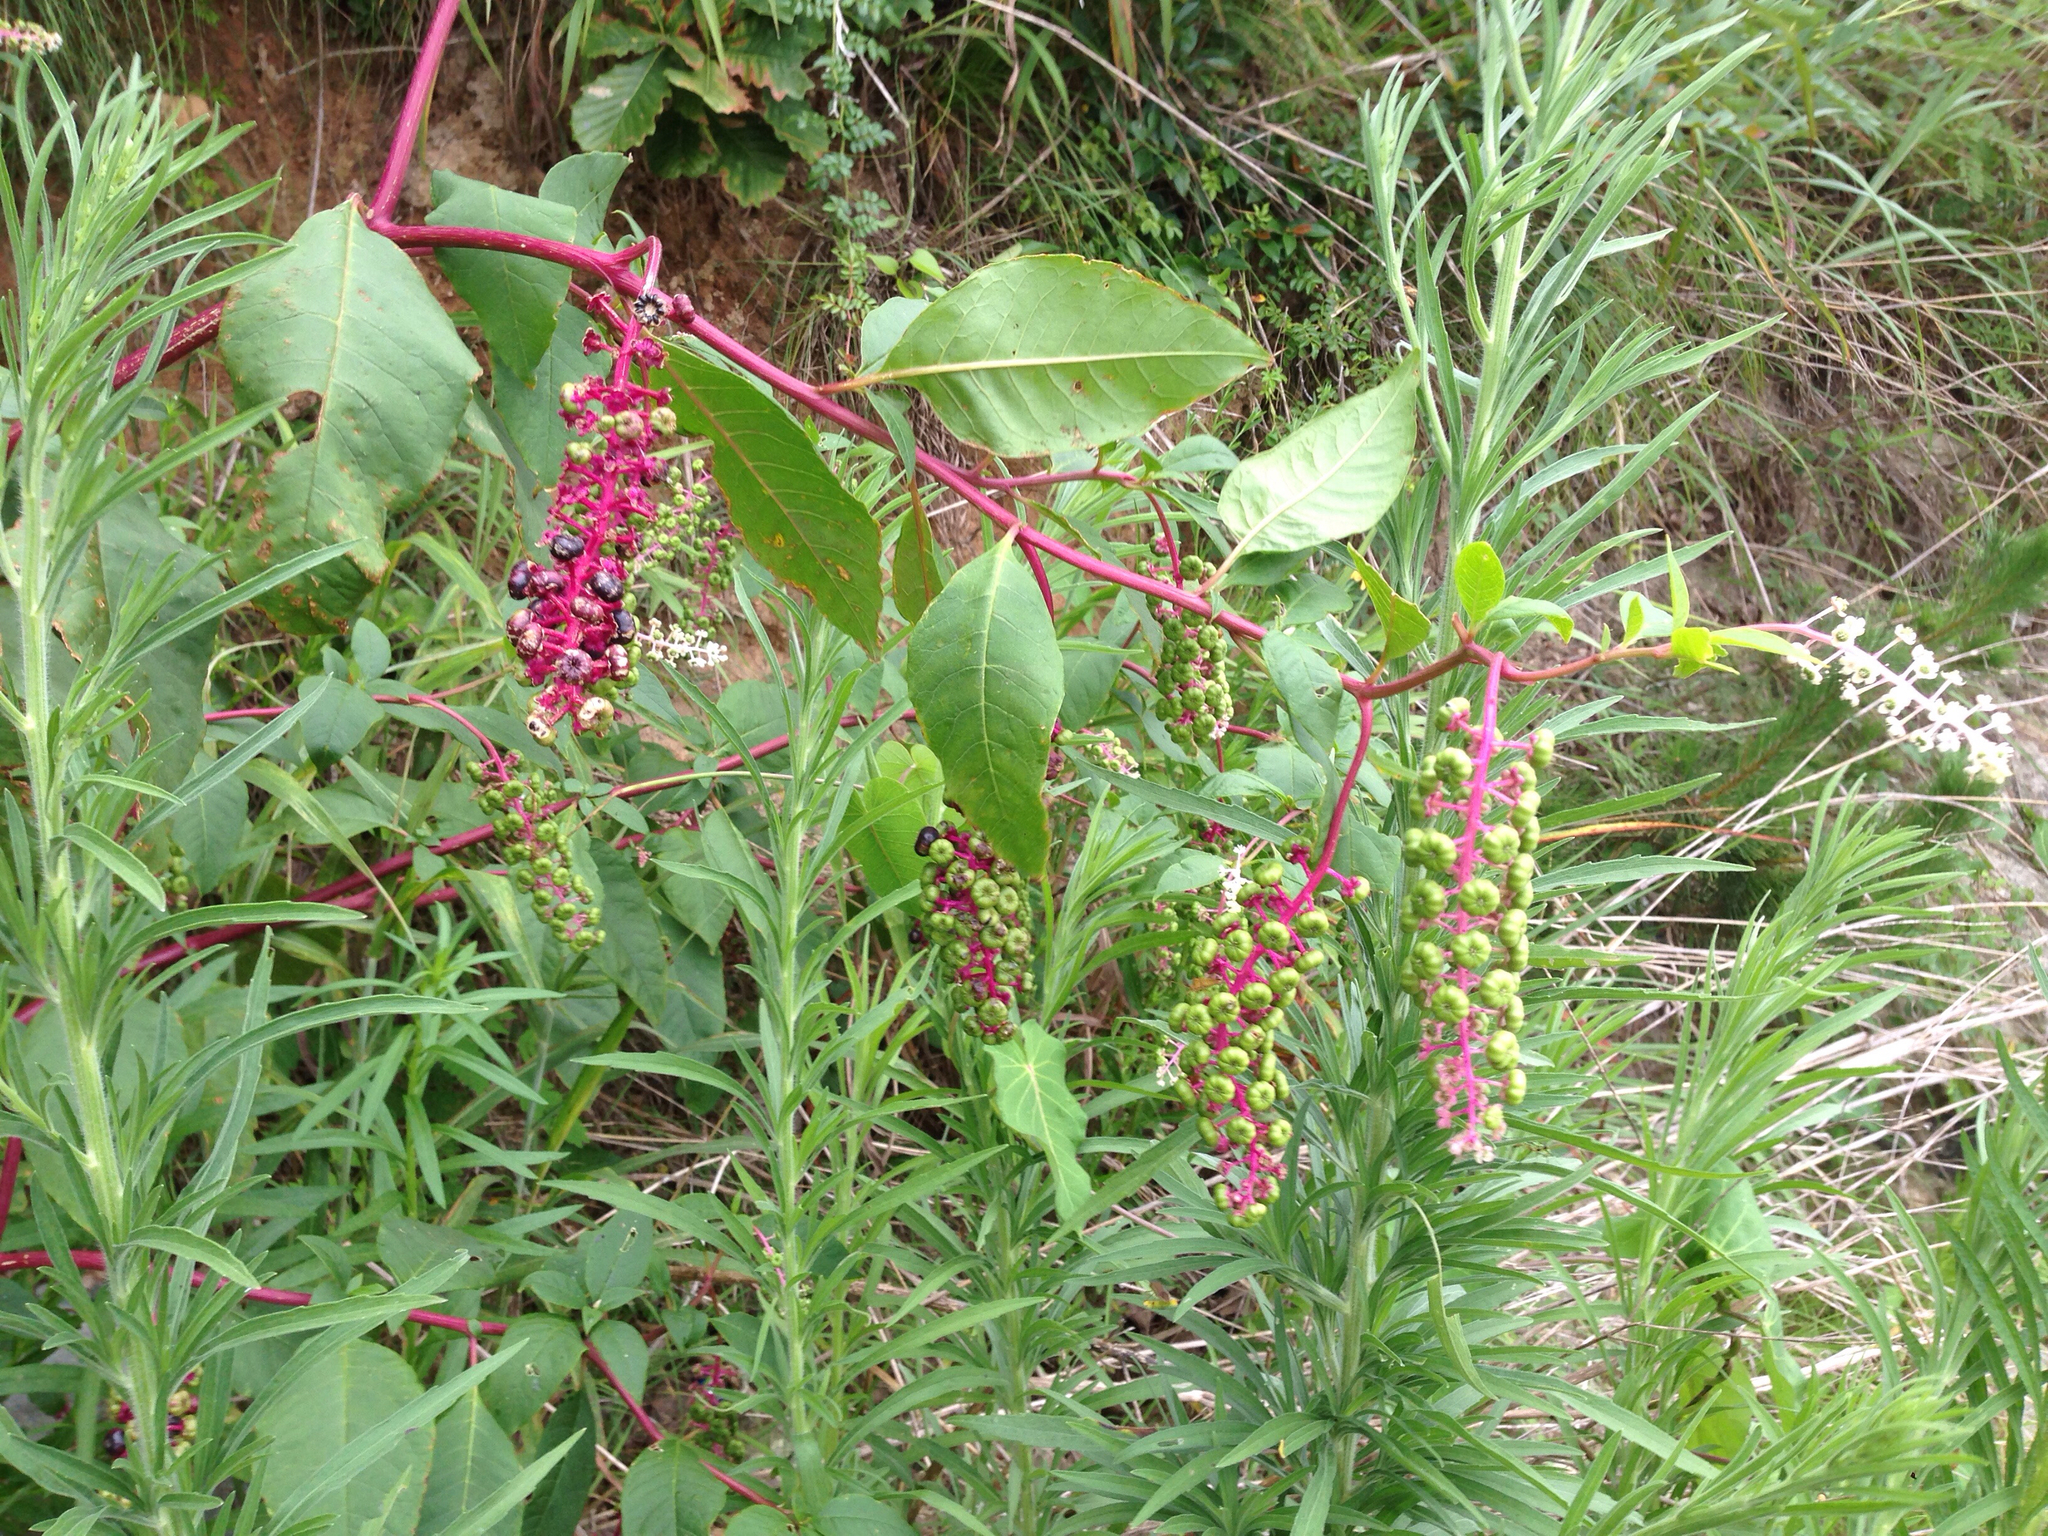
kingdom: Plantae
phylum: Tracheophyta
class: Magnoliopsida
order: Caryophyllales
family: Phytolaccaceae
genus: Phytolacca
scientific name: Phytolacca americana
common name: American pokeweed
